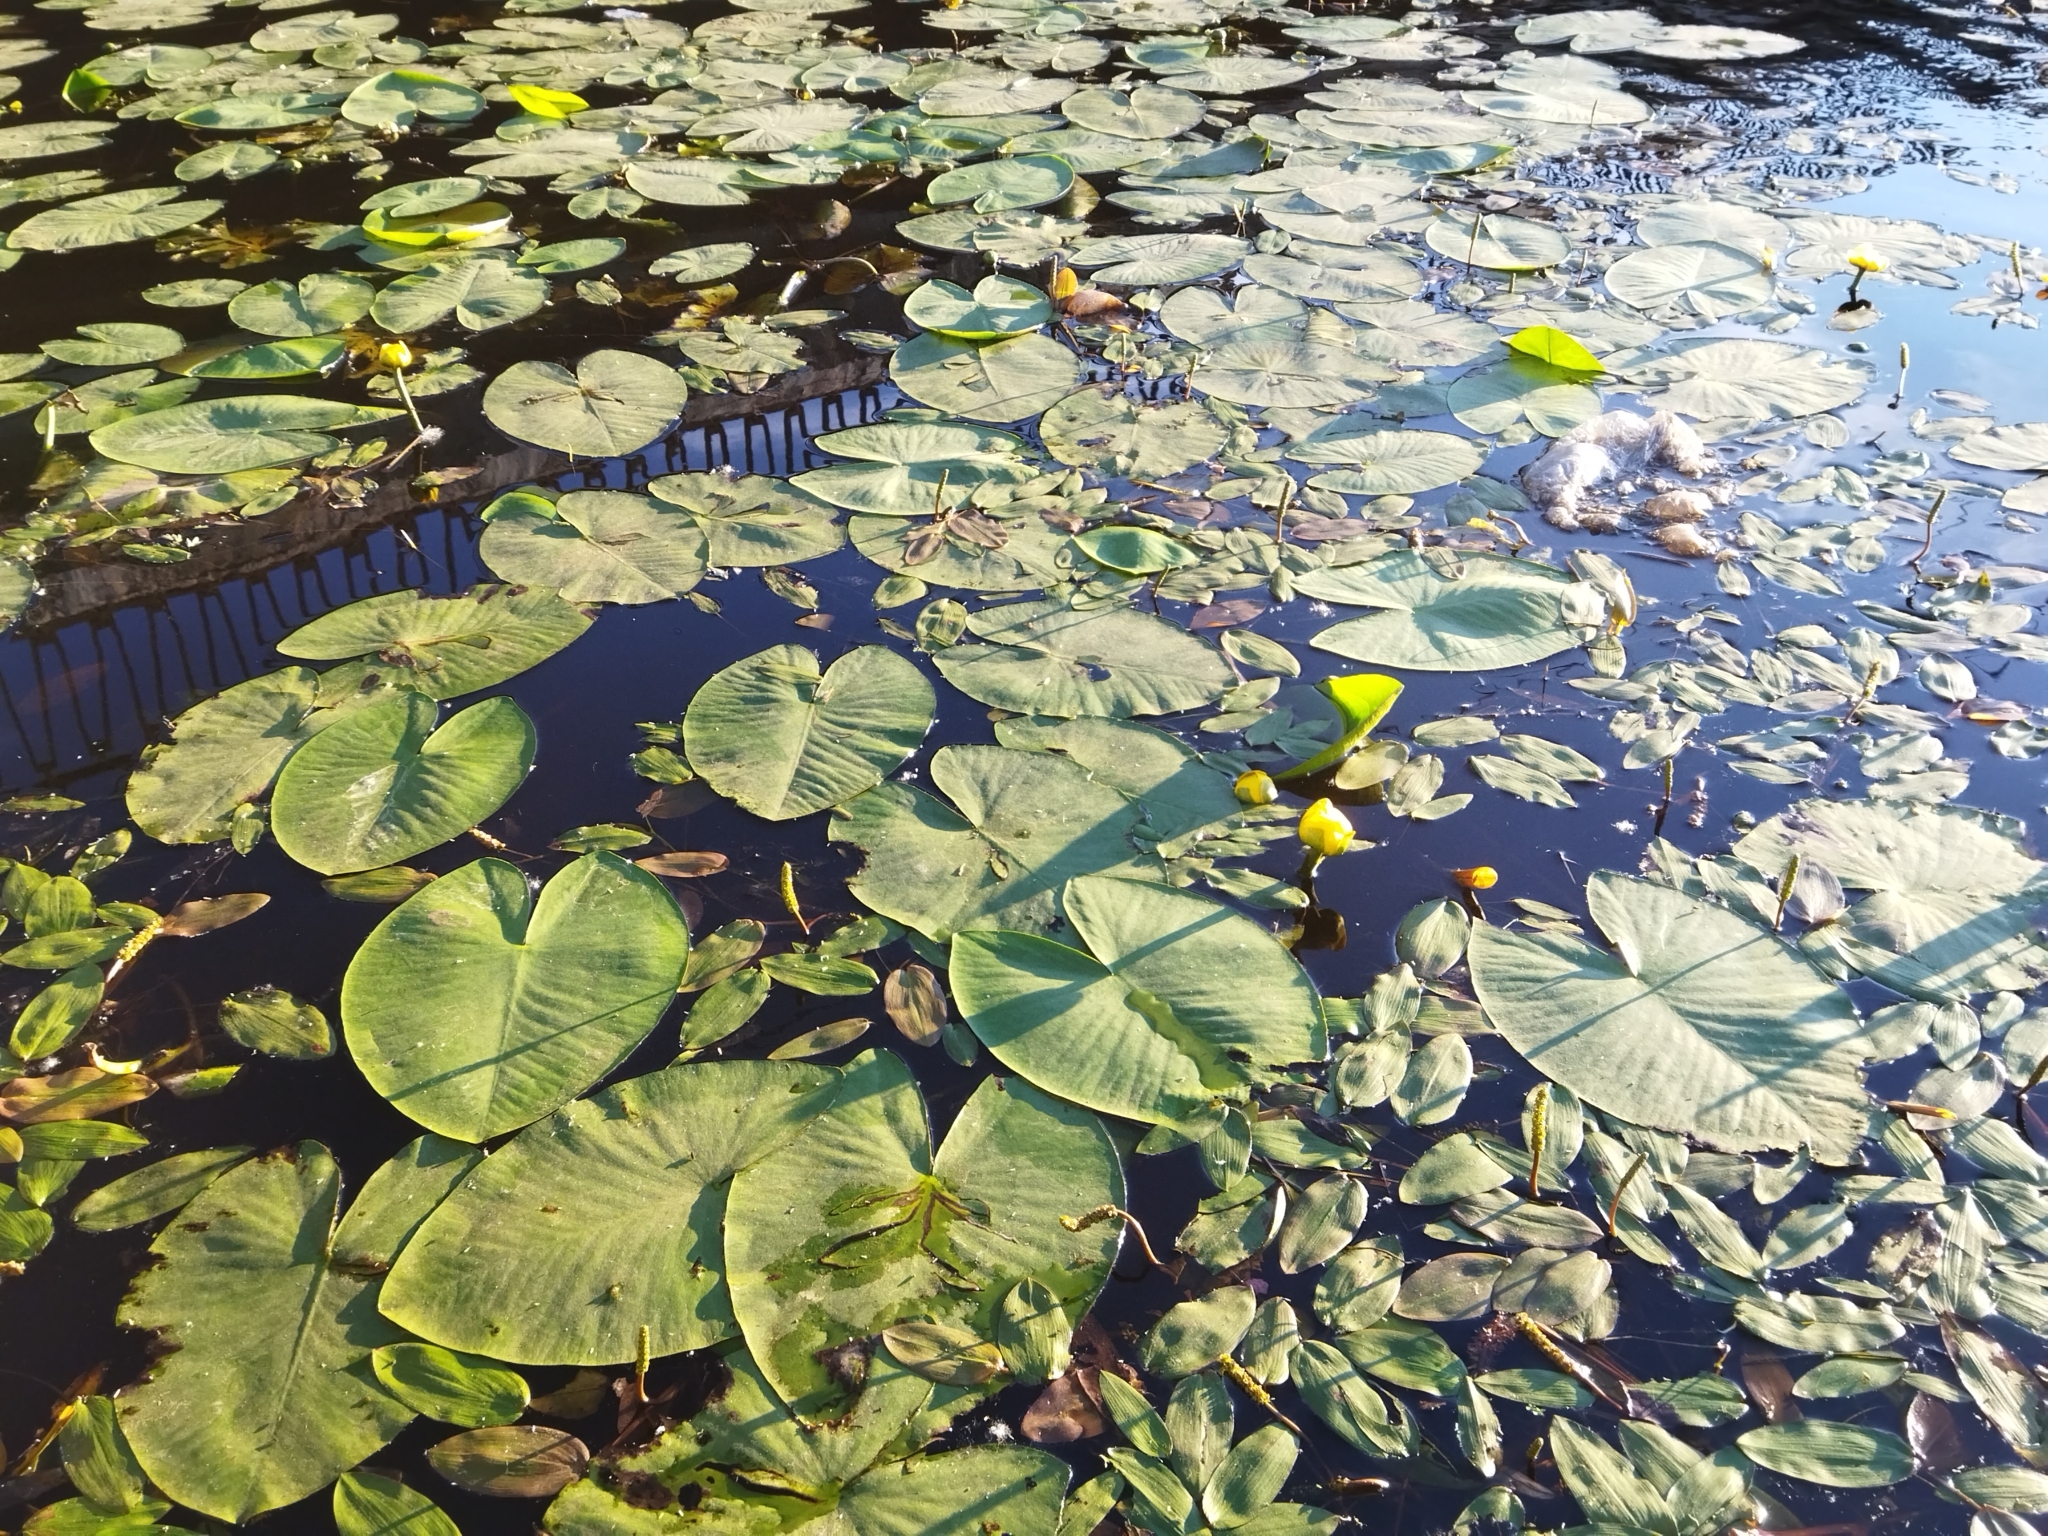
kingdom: Plantae
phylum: Tracheophyta
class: Magnoliopsida
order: Nymphaeales
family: Nymphaeaceae
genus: Nuphar
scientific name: Nuphar lutea
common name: Yellow water-lily
